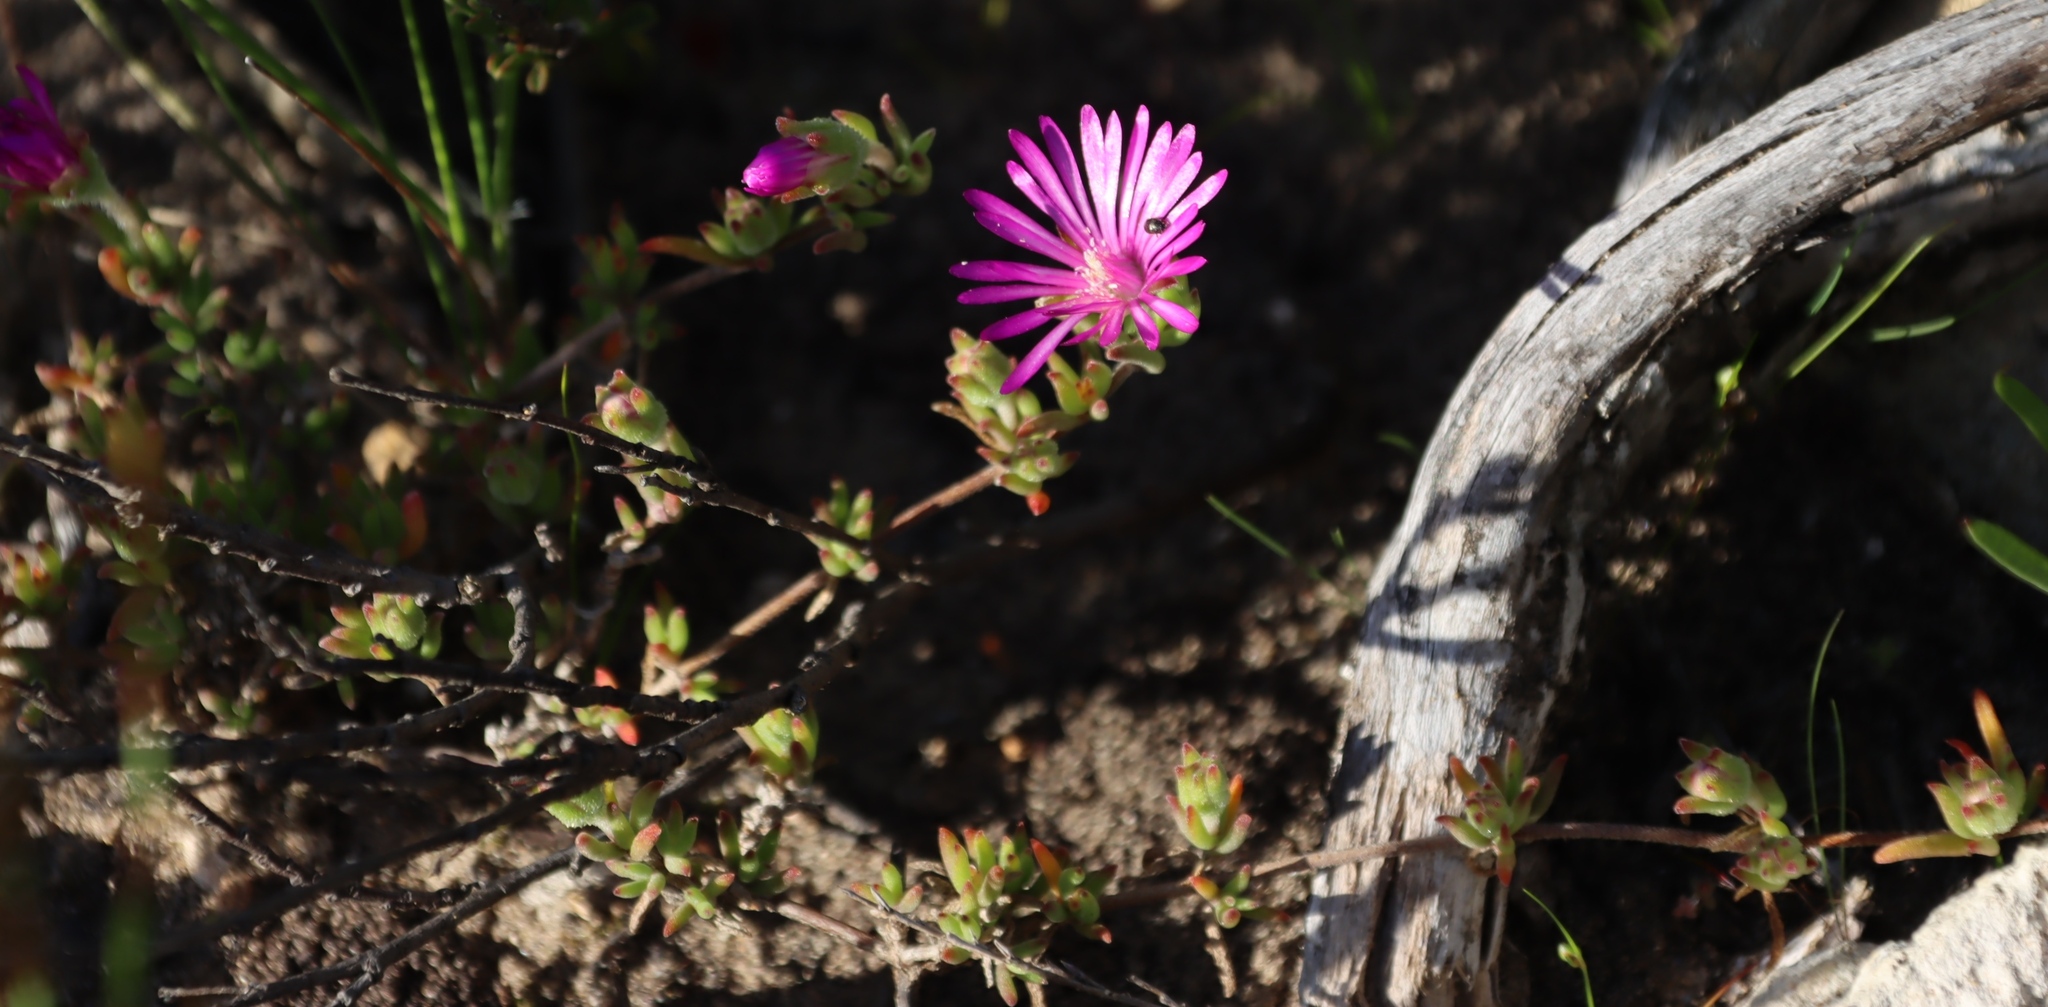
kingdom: Plantae
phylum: Tracheophyta
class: Magnoliopsida
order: Caryophyllales
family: Aizoaceae
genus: Drosanthemum
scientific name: Drosanthemum calcareum
